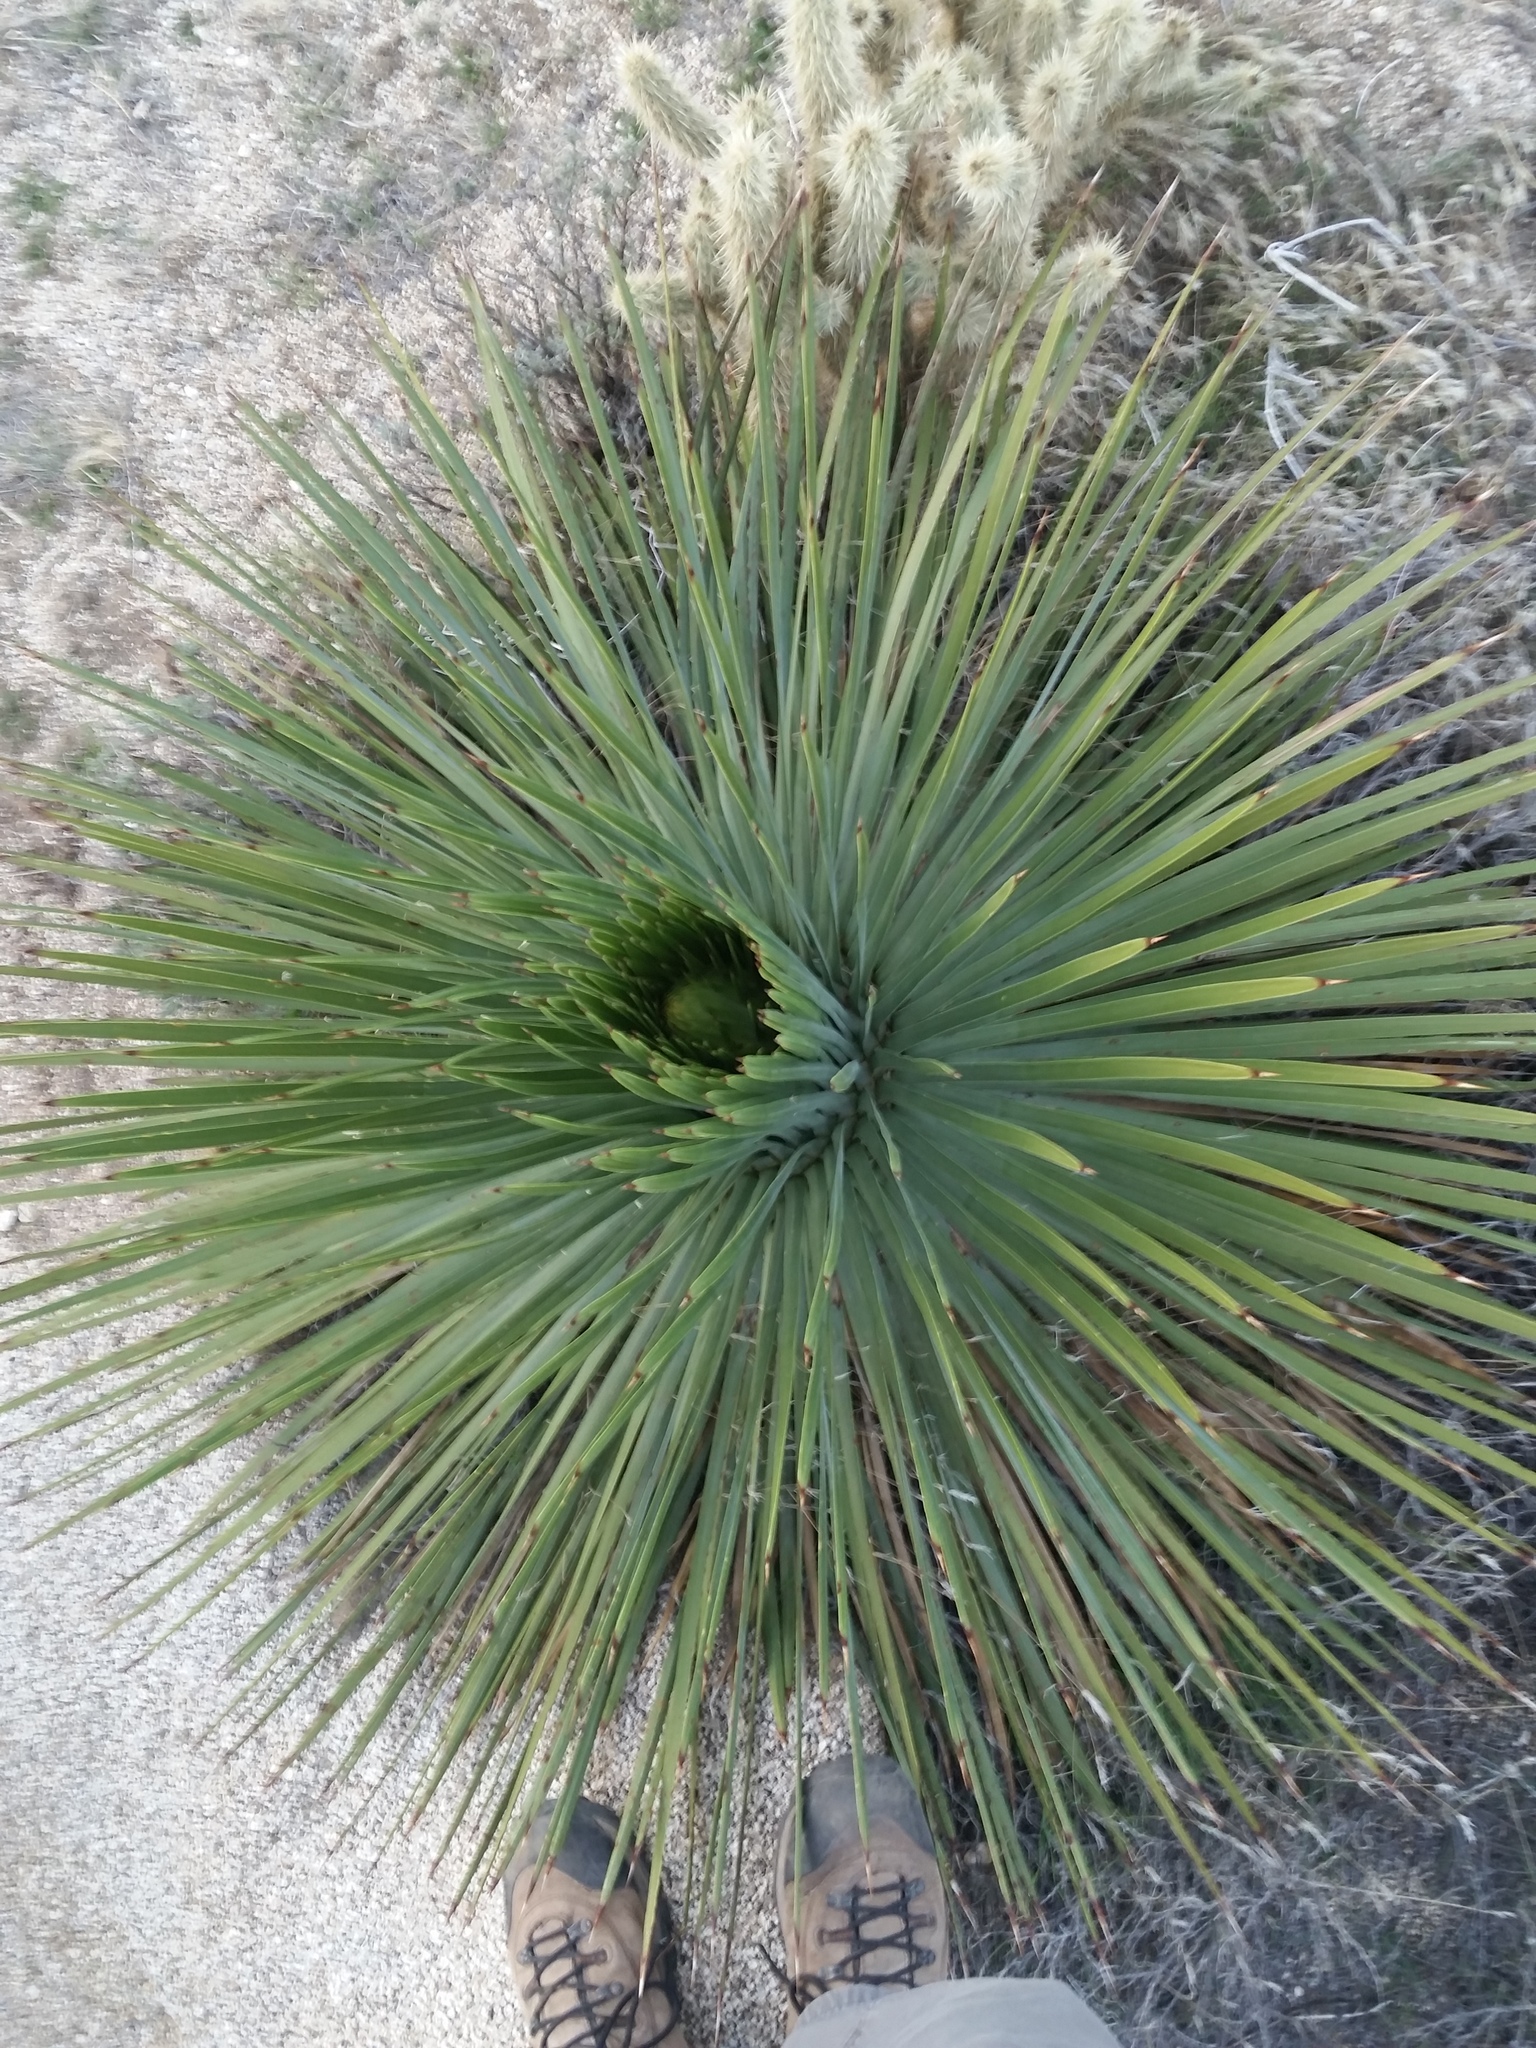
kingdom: Plantae
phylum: Tracheophyta
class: Liliopsida
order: Asparagales
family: Asparagaceae
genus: Hesperoyucca
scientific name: Hesperoyucca whipplei
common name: Our lord's-candle
